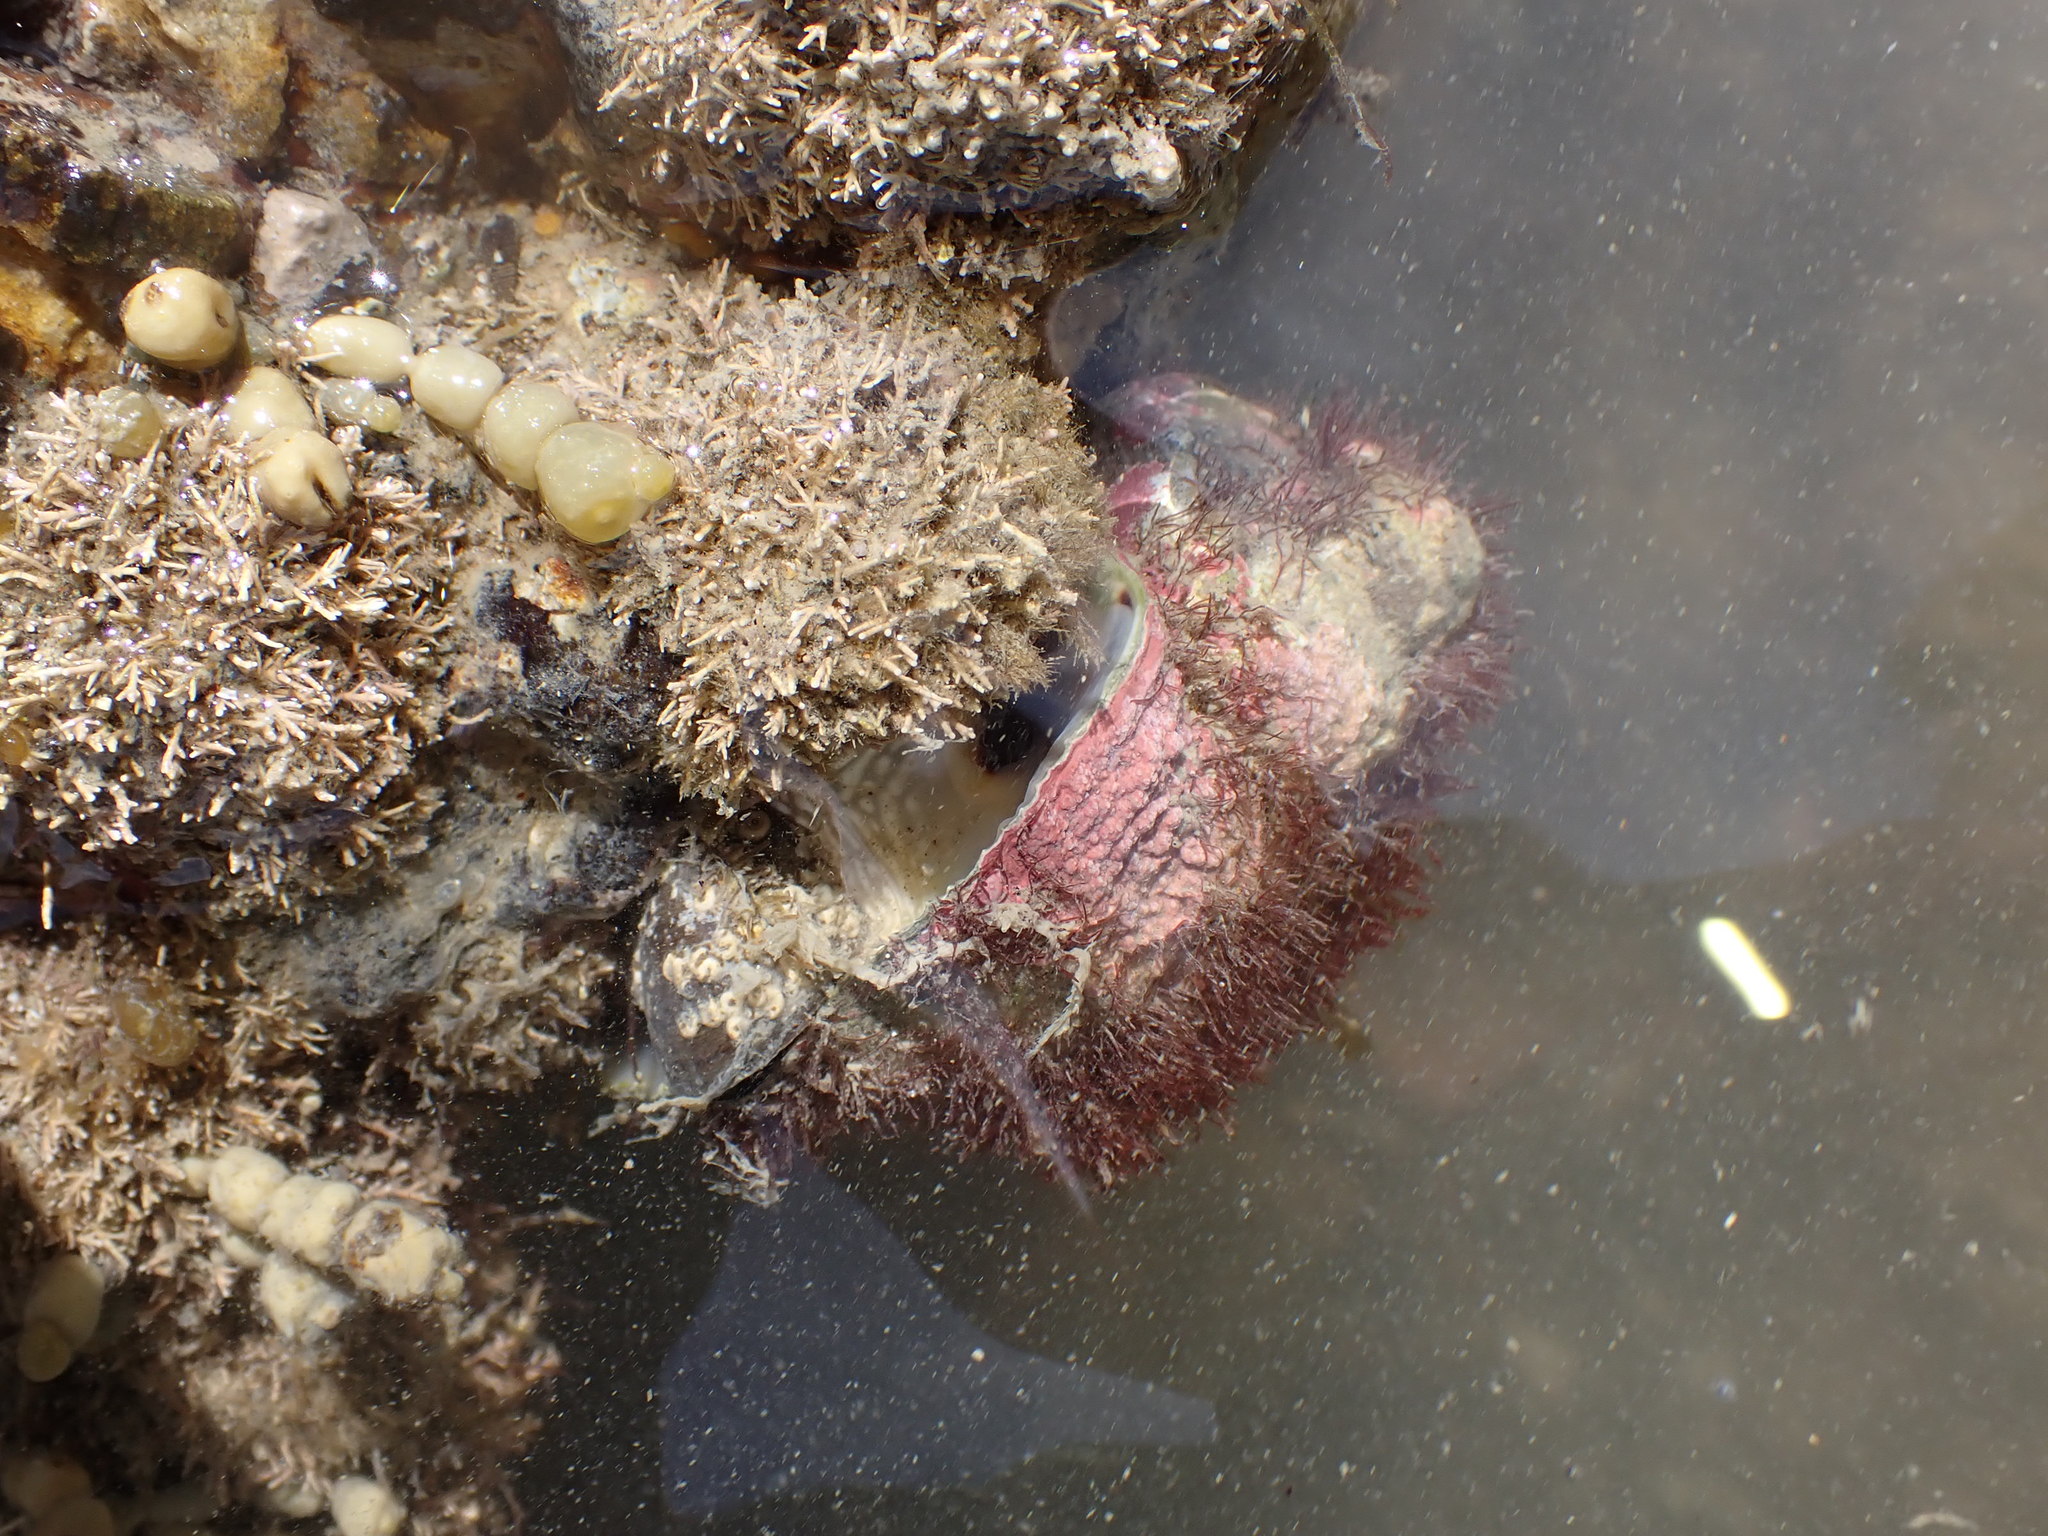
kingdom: Animalia
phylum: Mollusca
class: Gastropoda
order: Neogastropoda
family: Muricidae
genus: Haustrum
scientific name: Haustrum haustorium
